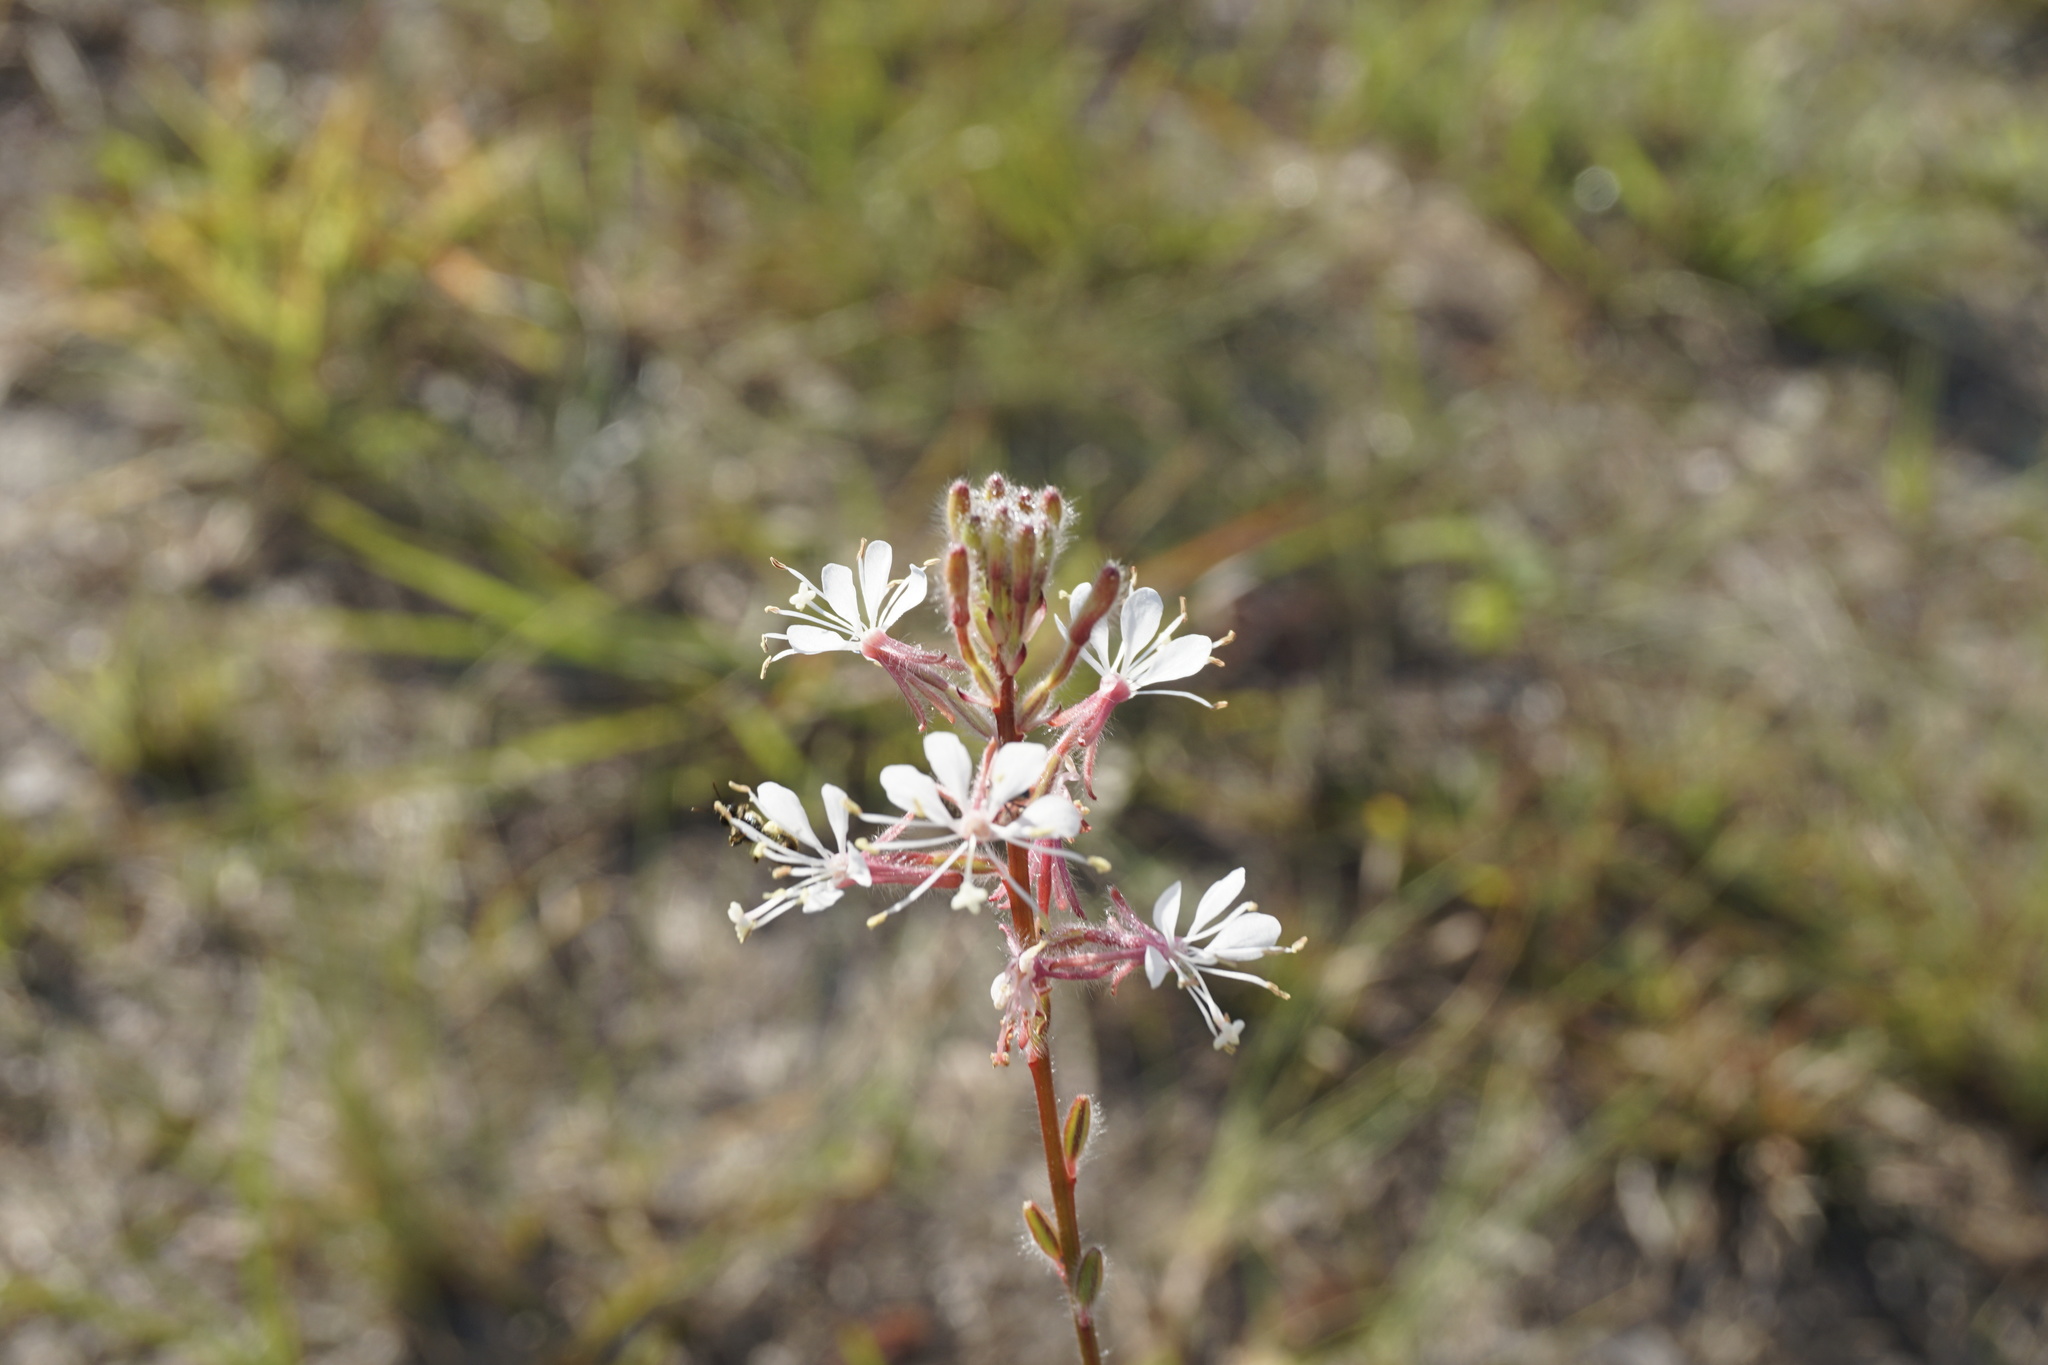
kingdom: Plantae
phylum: Tracheophyta
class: Magnoliopsida
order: Myrtales
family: Onagraceae
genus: Oenothera
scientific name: Oenothera simulans
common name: Southern beeblossom
